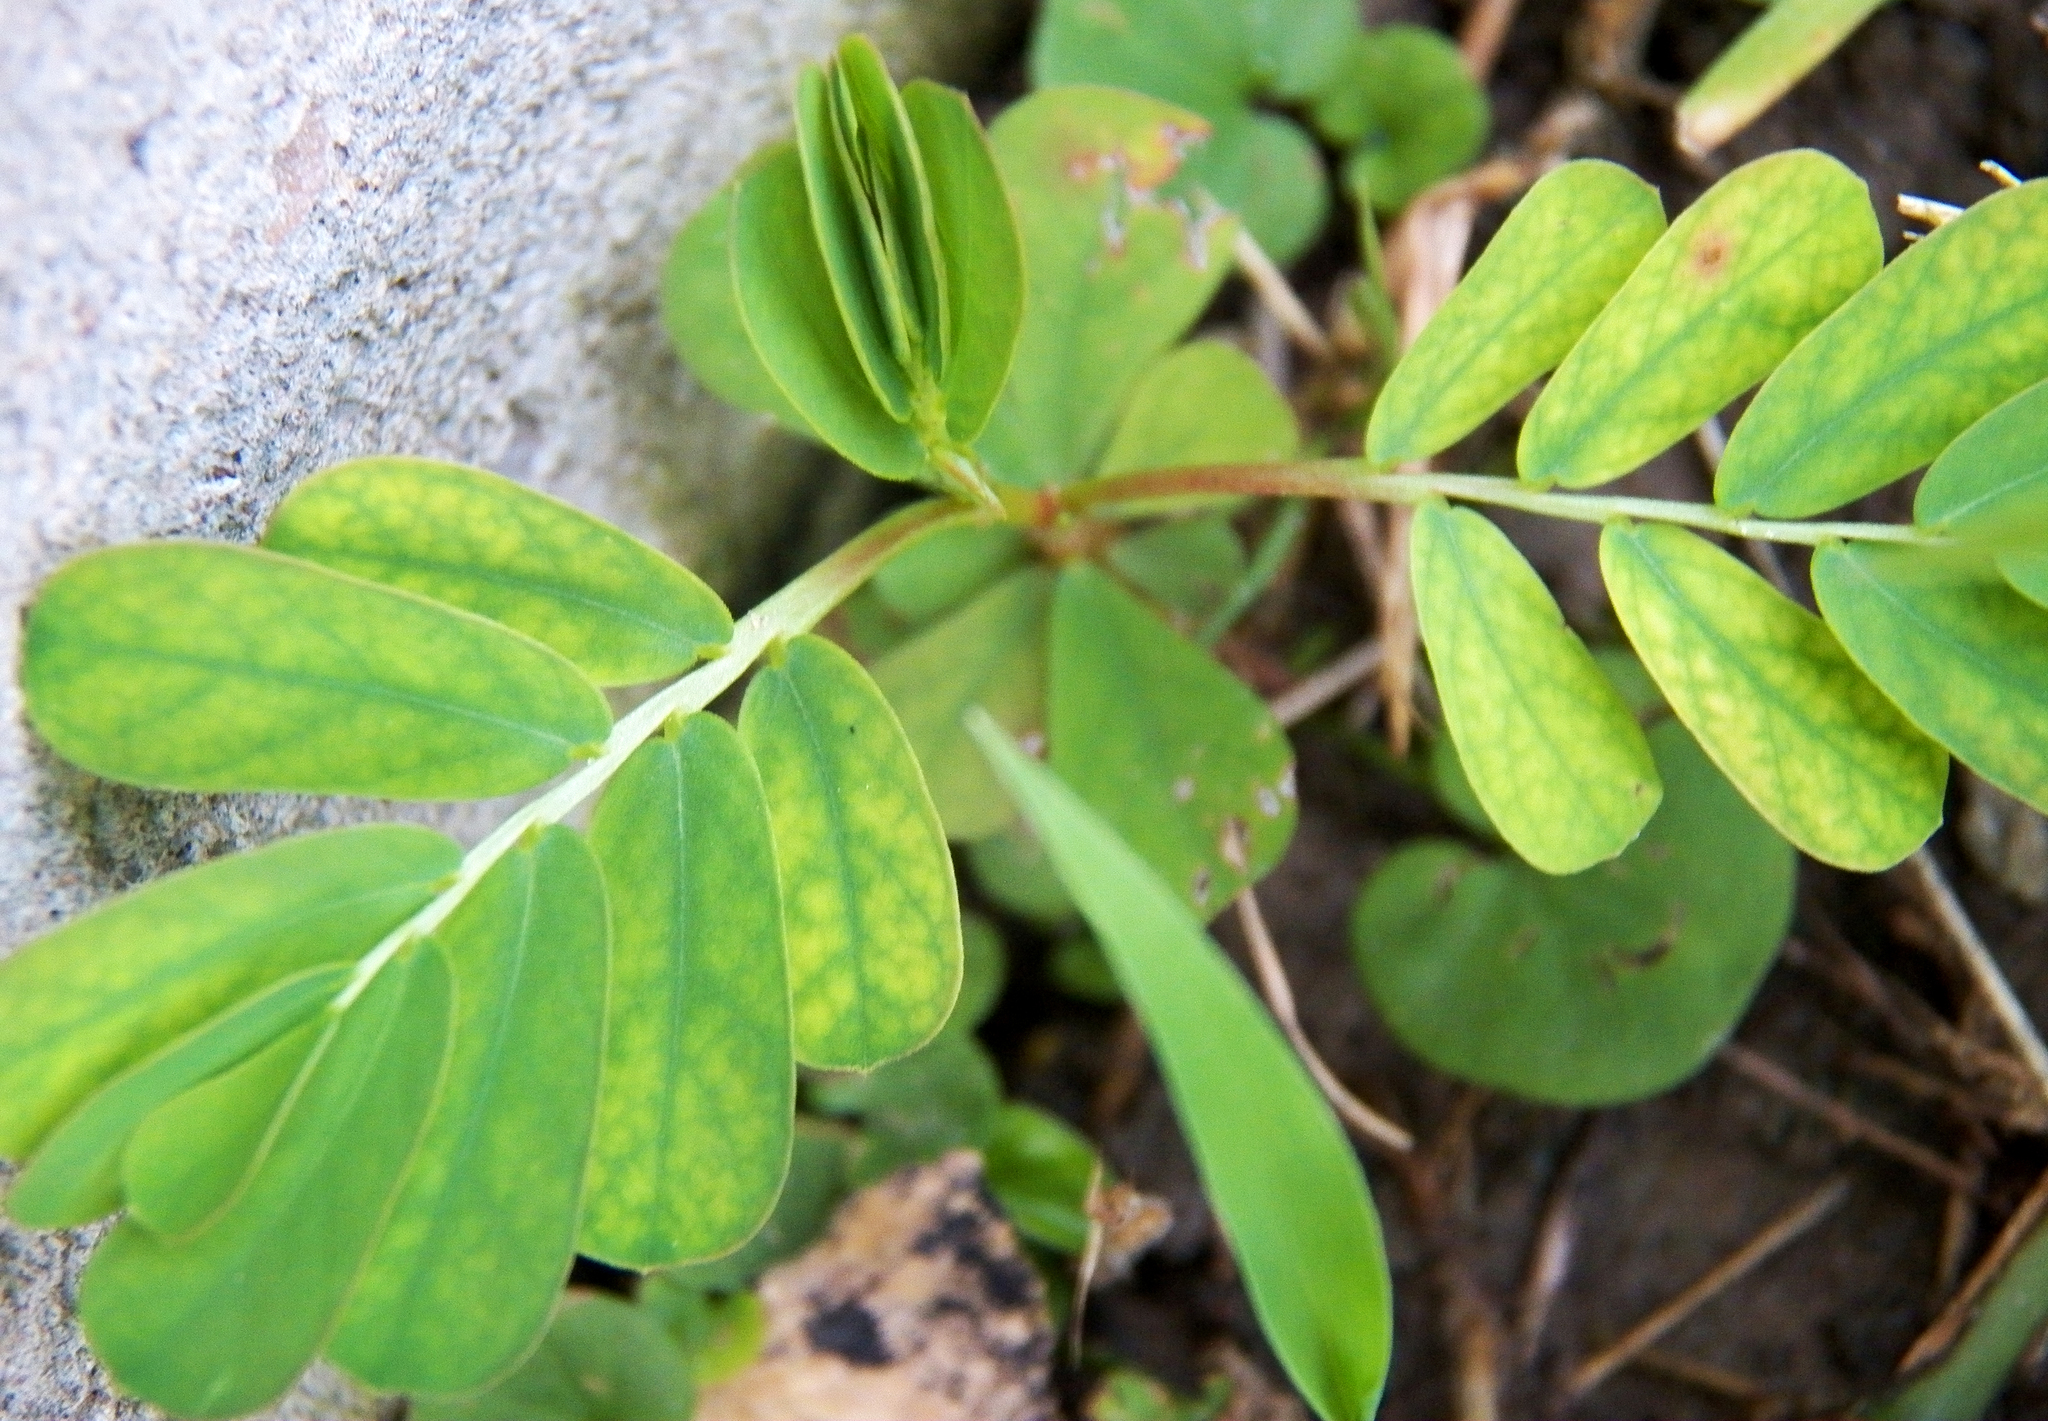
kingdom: Plantae
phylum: Tracheophyta
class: Magnoliopsida
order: Malpighiales
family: Phyllanthaceae
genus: Phyllanthus
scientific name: Phyllanthus urinaria
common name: Chamber bitter
